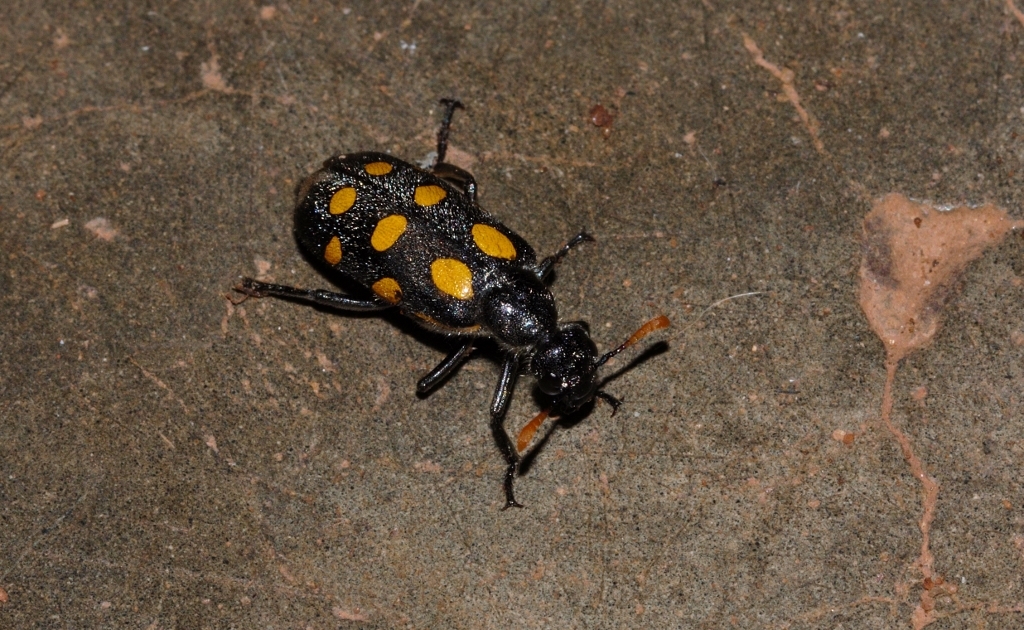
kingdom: Animalia
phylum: Arthropoda
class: Insecta
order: Coleoptera
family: Meloidae
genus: Hycleus
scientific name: Hycleus lugens
